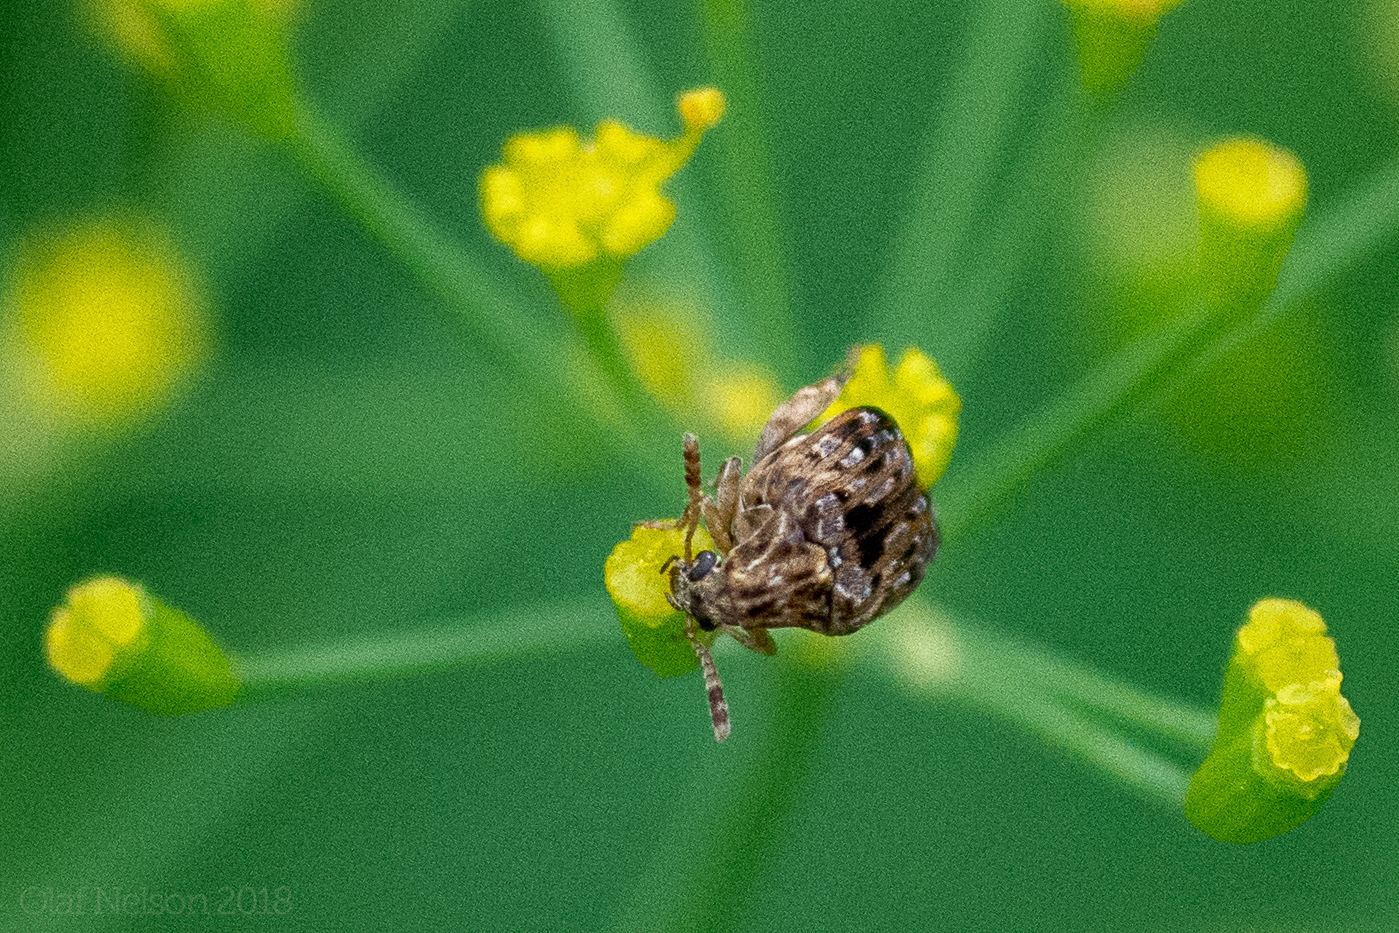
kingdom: Animalia
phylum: Arthropoda
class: Insecta
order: Coleoptera
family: Chrysomelidae
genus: Gibbobruchus
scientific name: Gibbobruchus mimus
